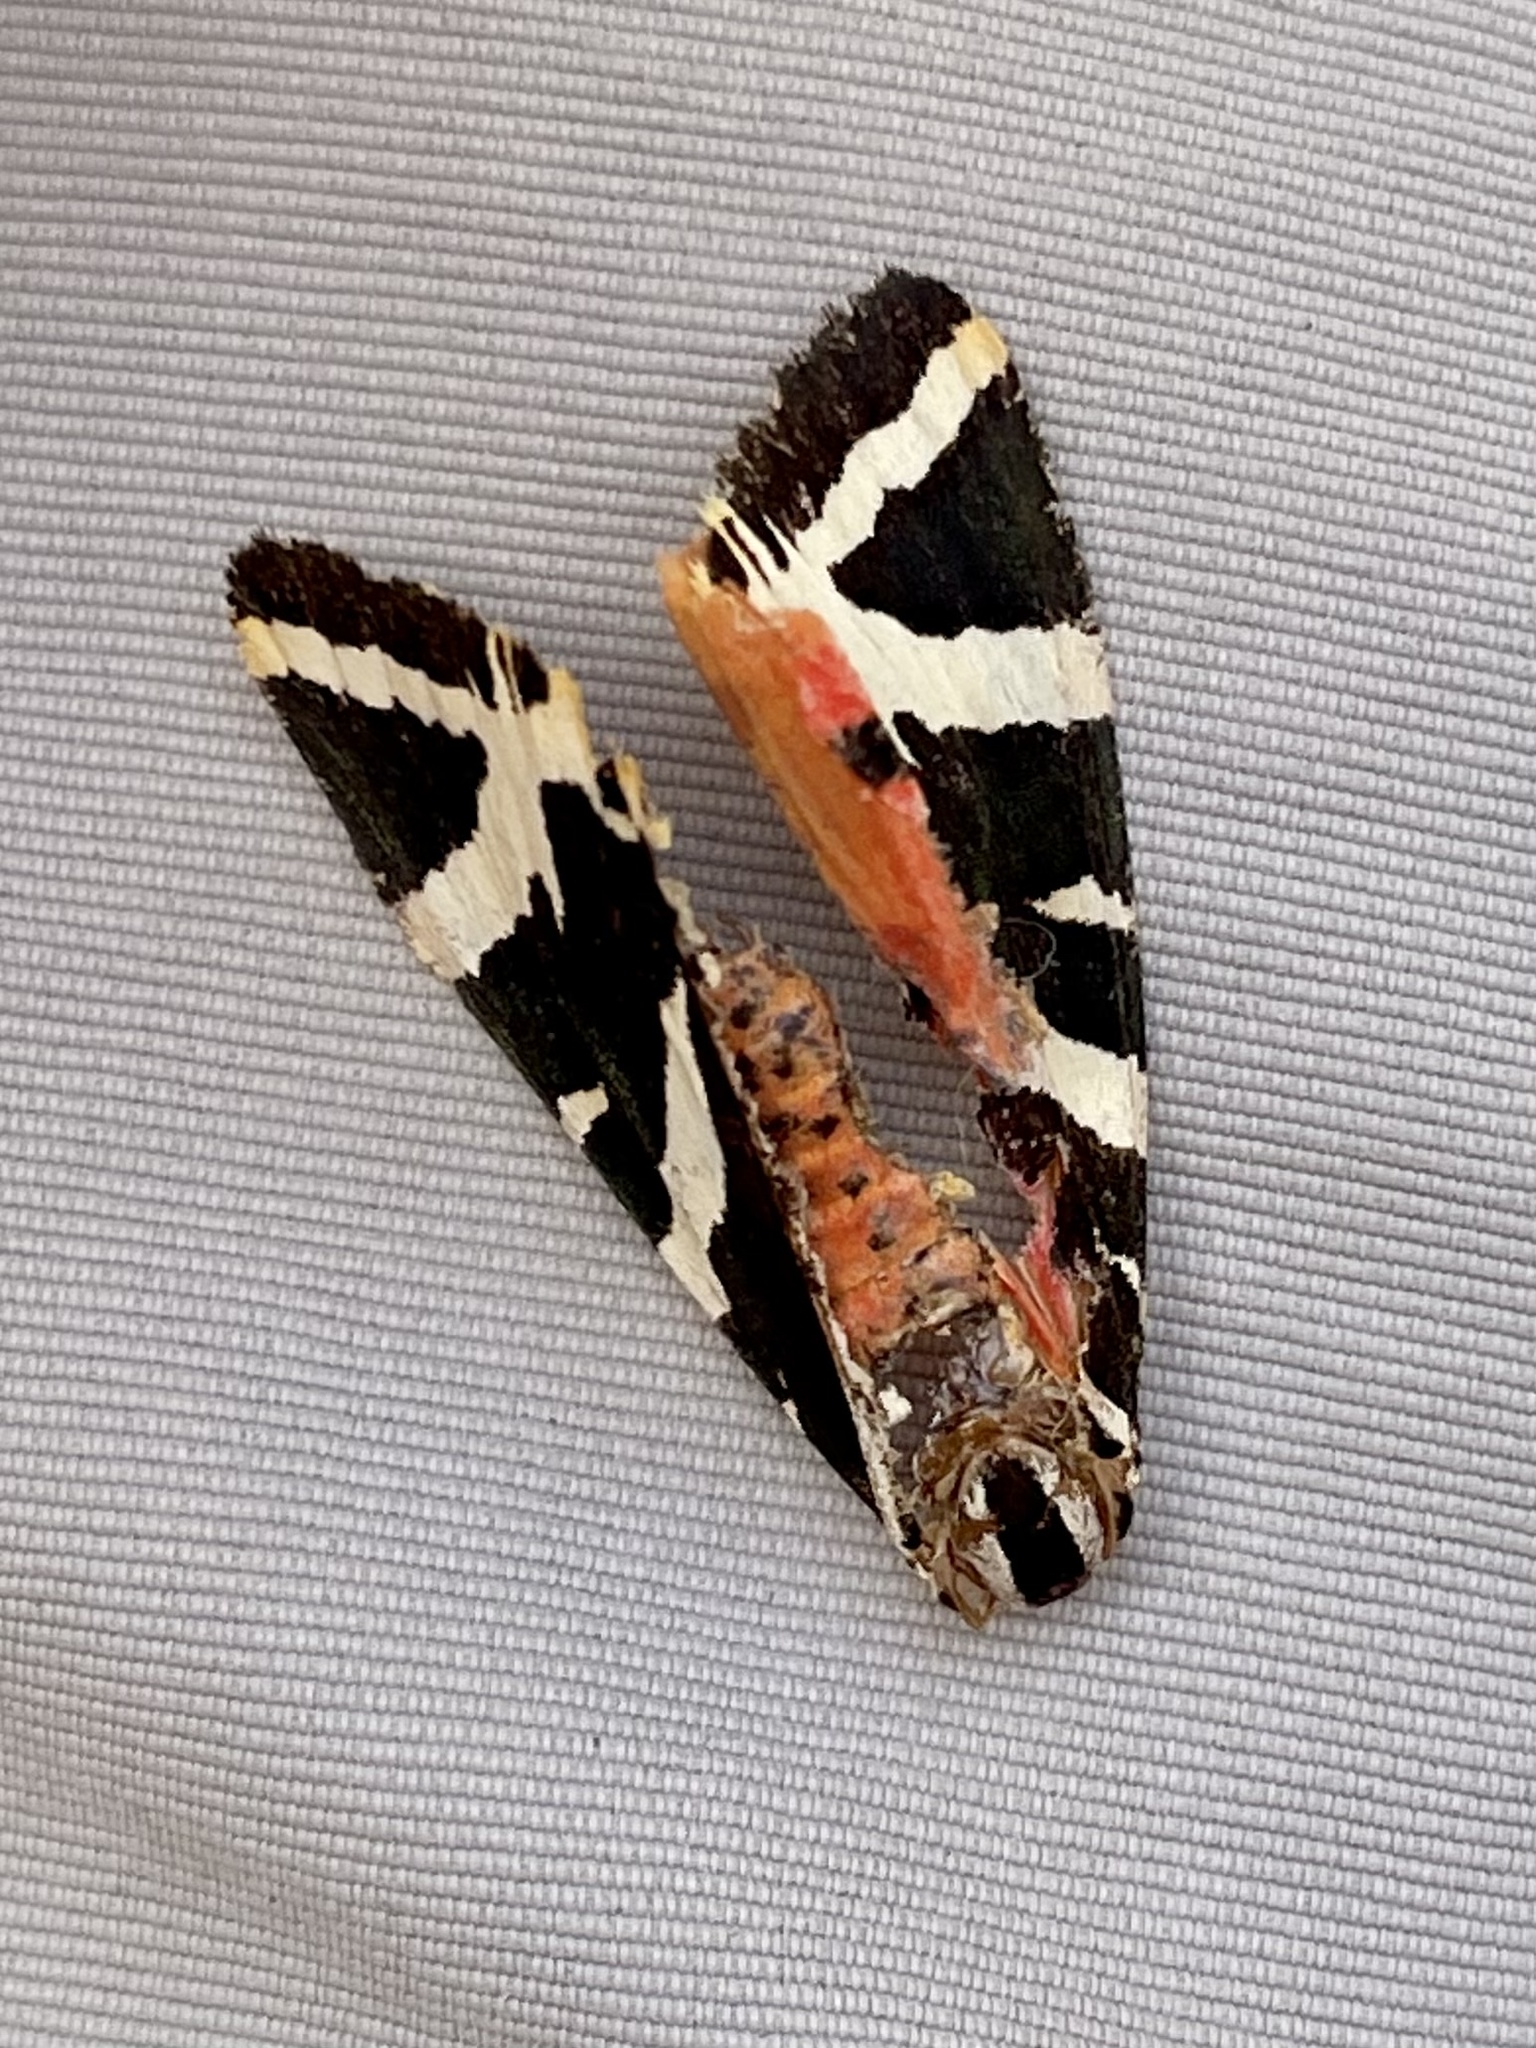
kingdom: Animalia
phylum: Arthropoda
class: Insecta
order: Lepidoptera
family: Erebidae
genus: Euplagia
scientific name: Euplagia quadripunctaria
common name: Jersey tiger
